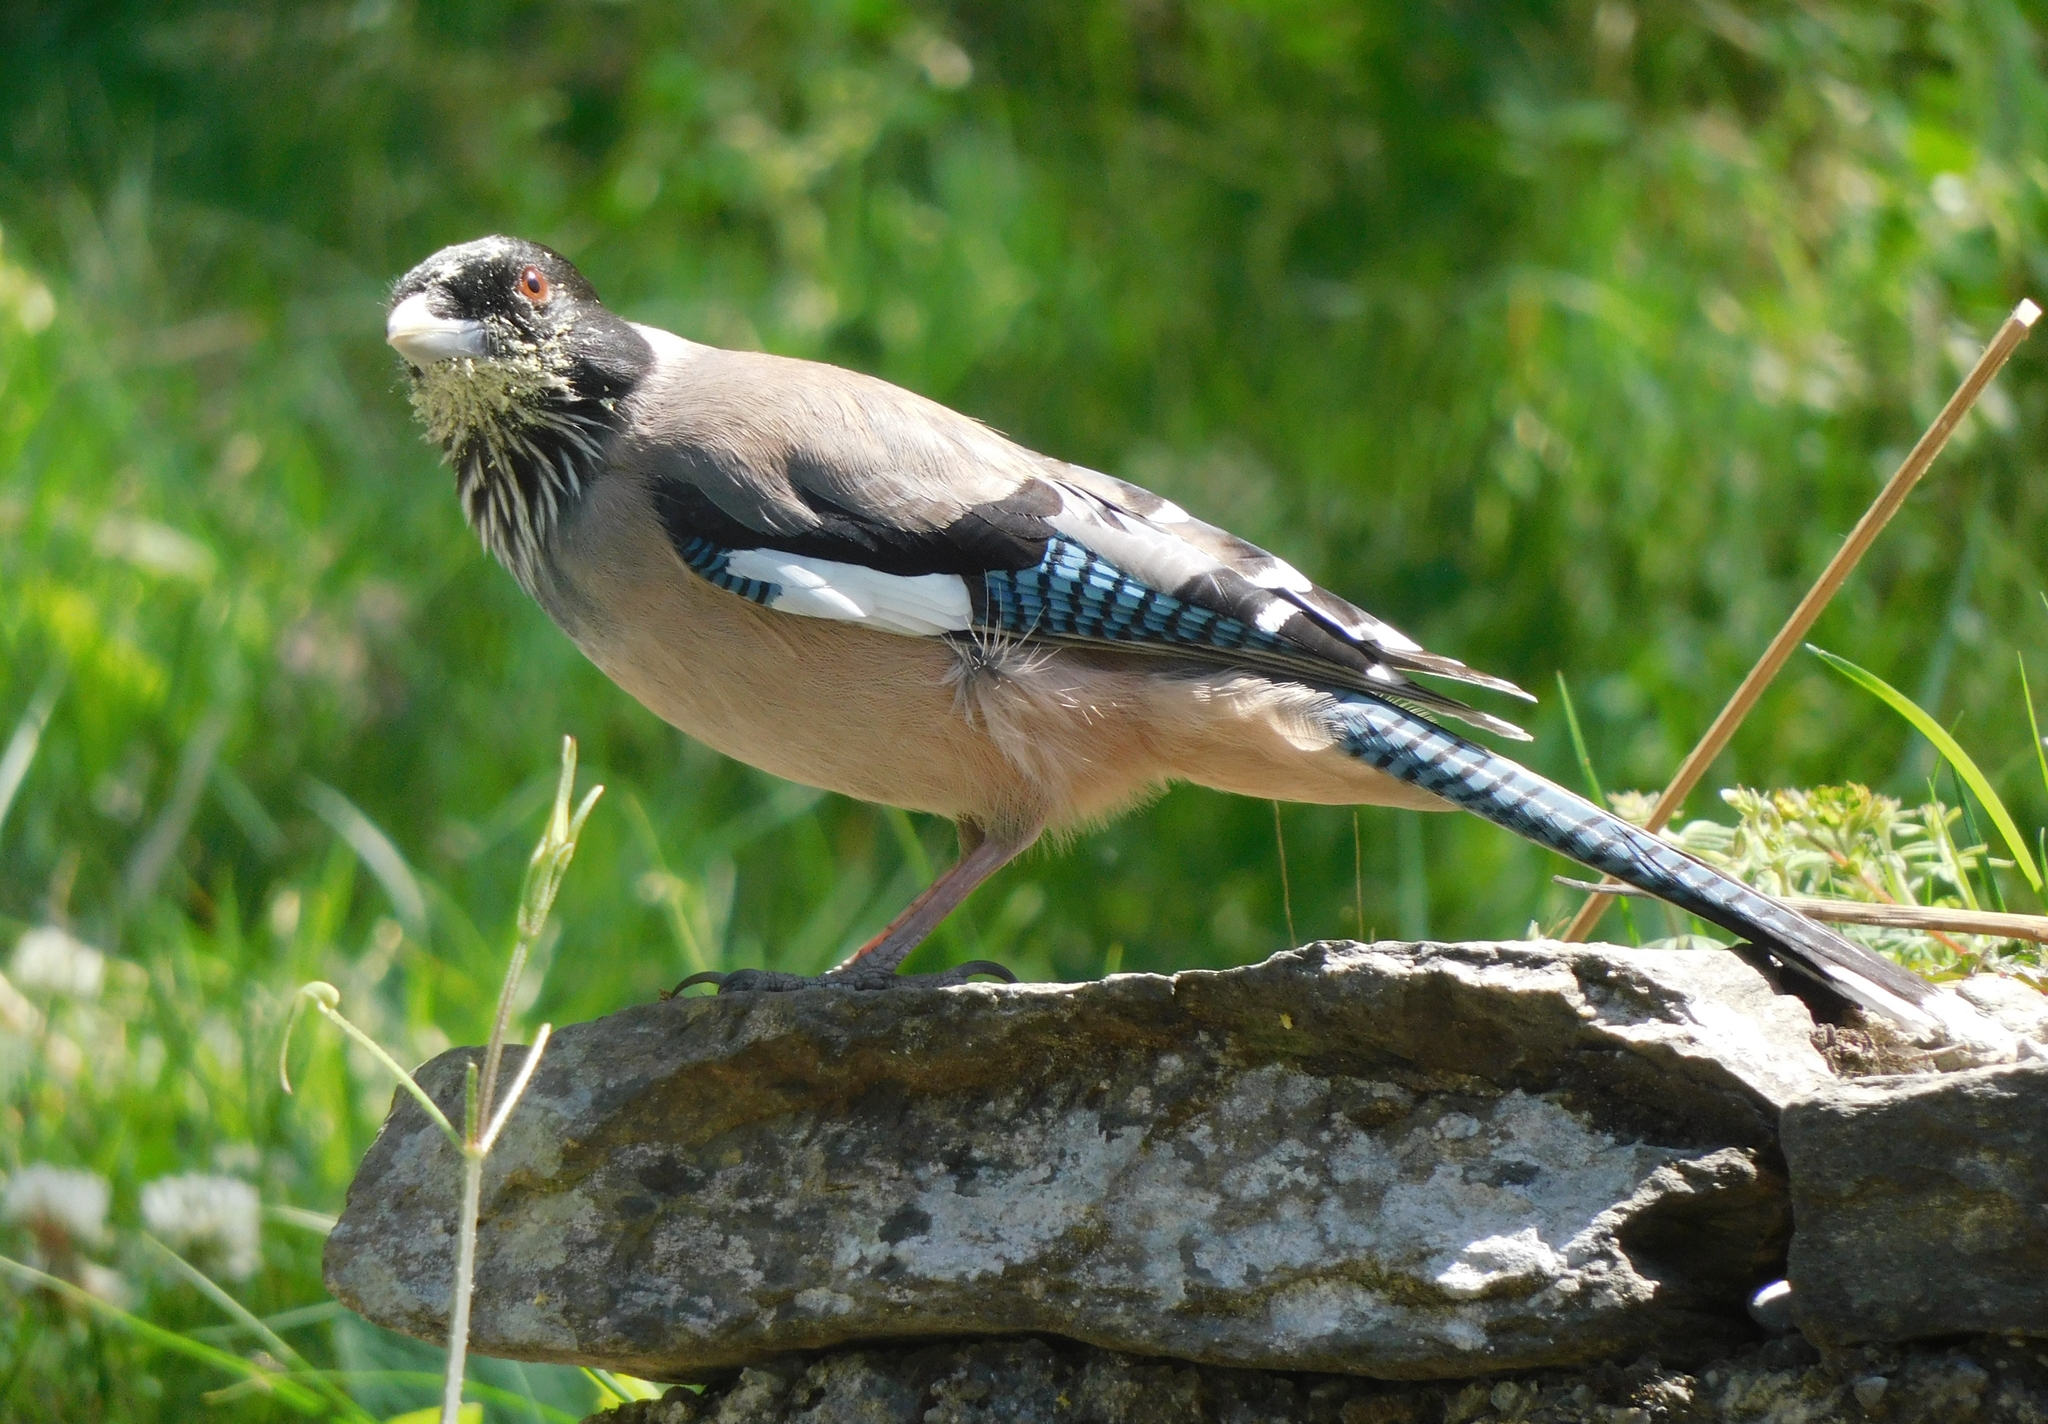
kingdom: Animalia
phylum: Chordata
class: Aves
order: Passeriformes
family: Corvidae
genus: Garrulus
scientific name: Garrulus lanceolatus
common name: Black-headed jay
